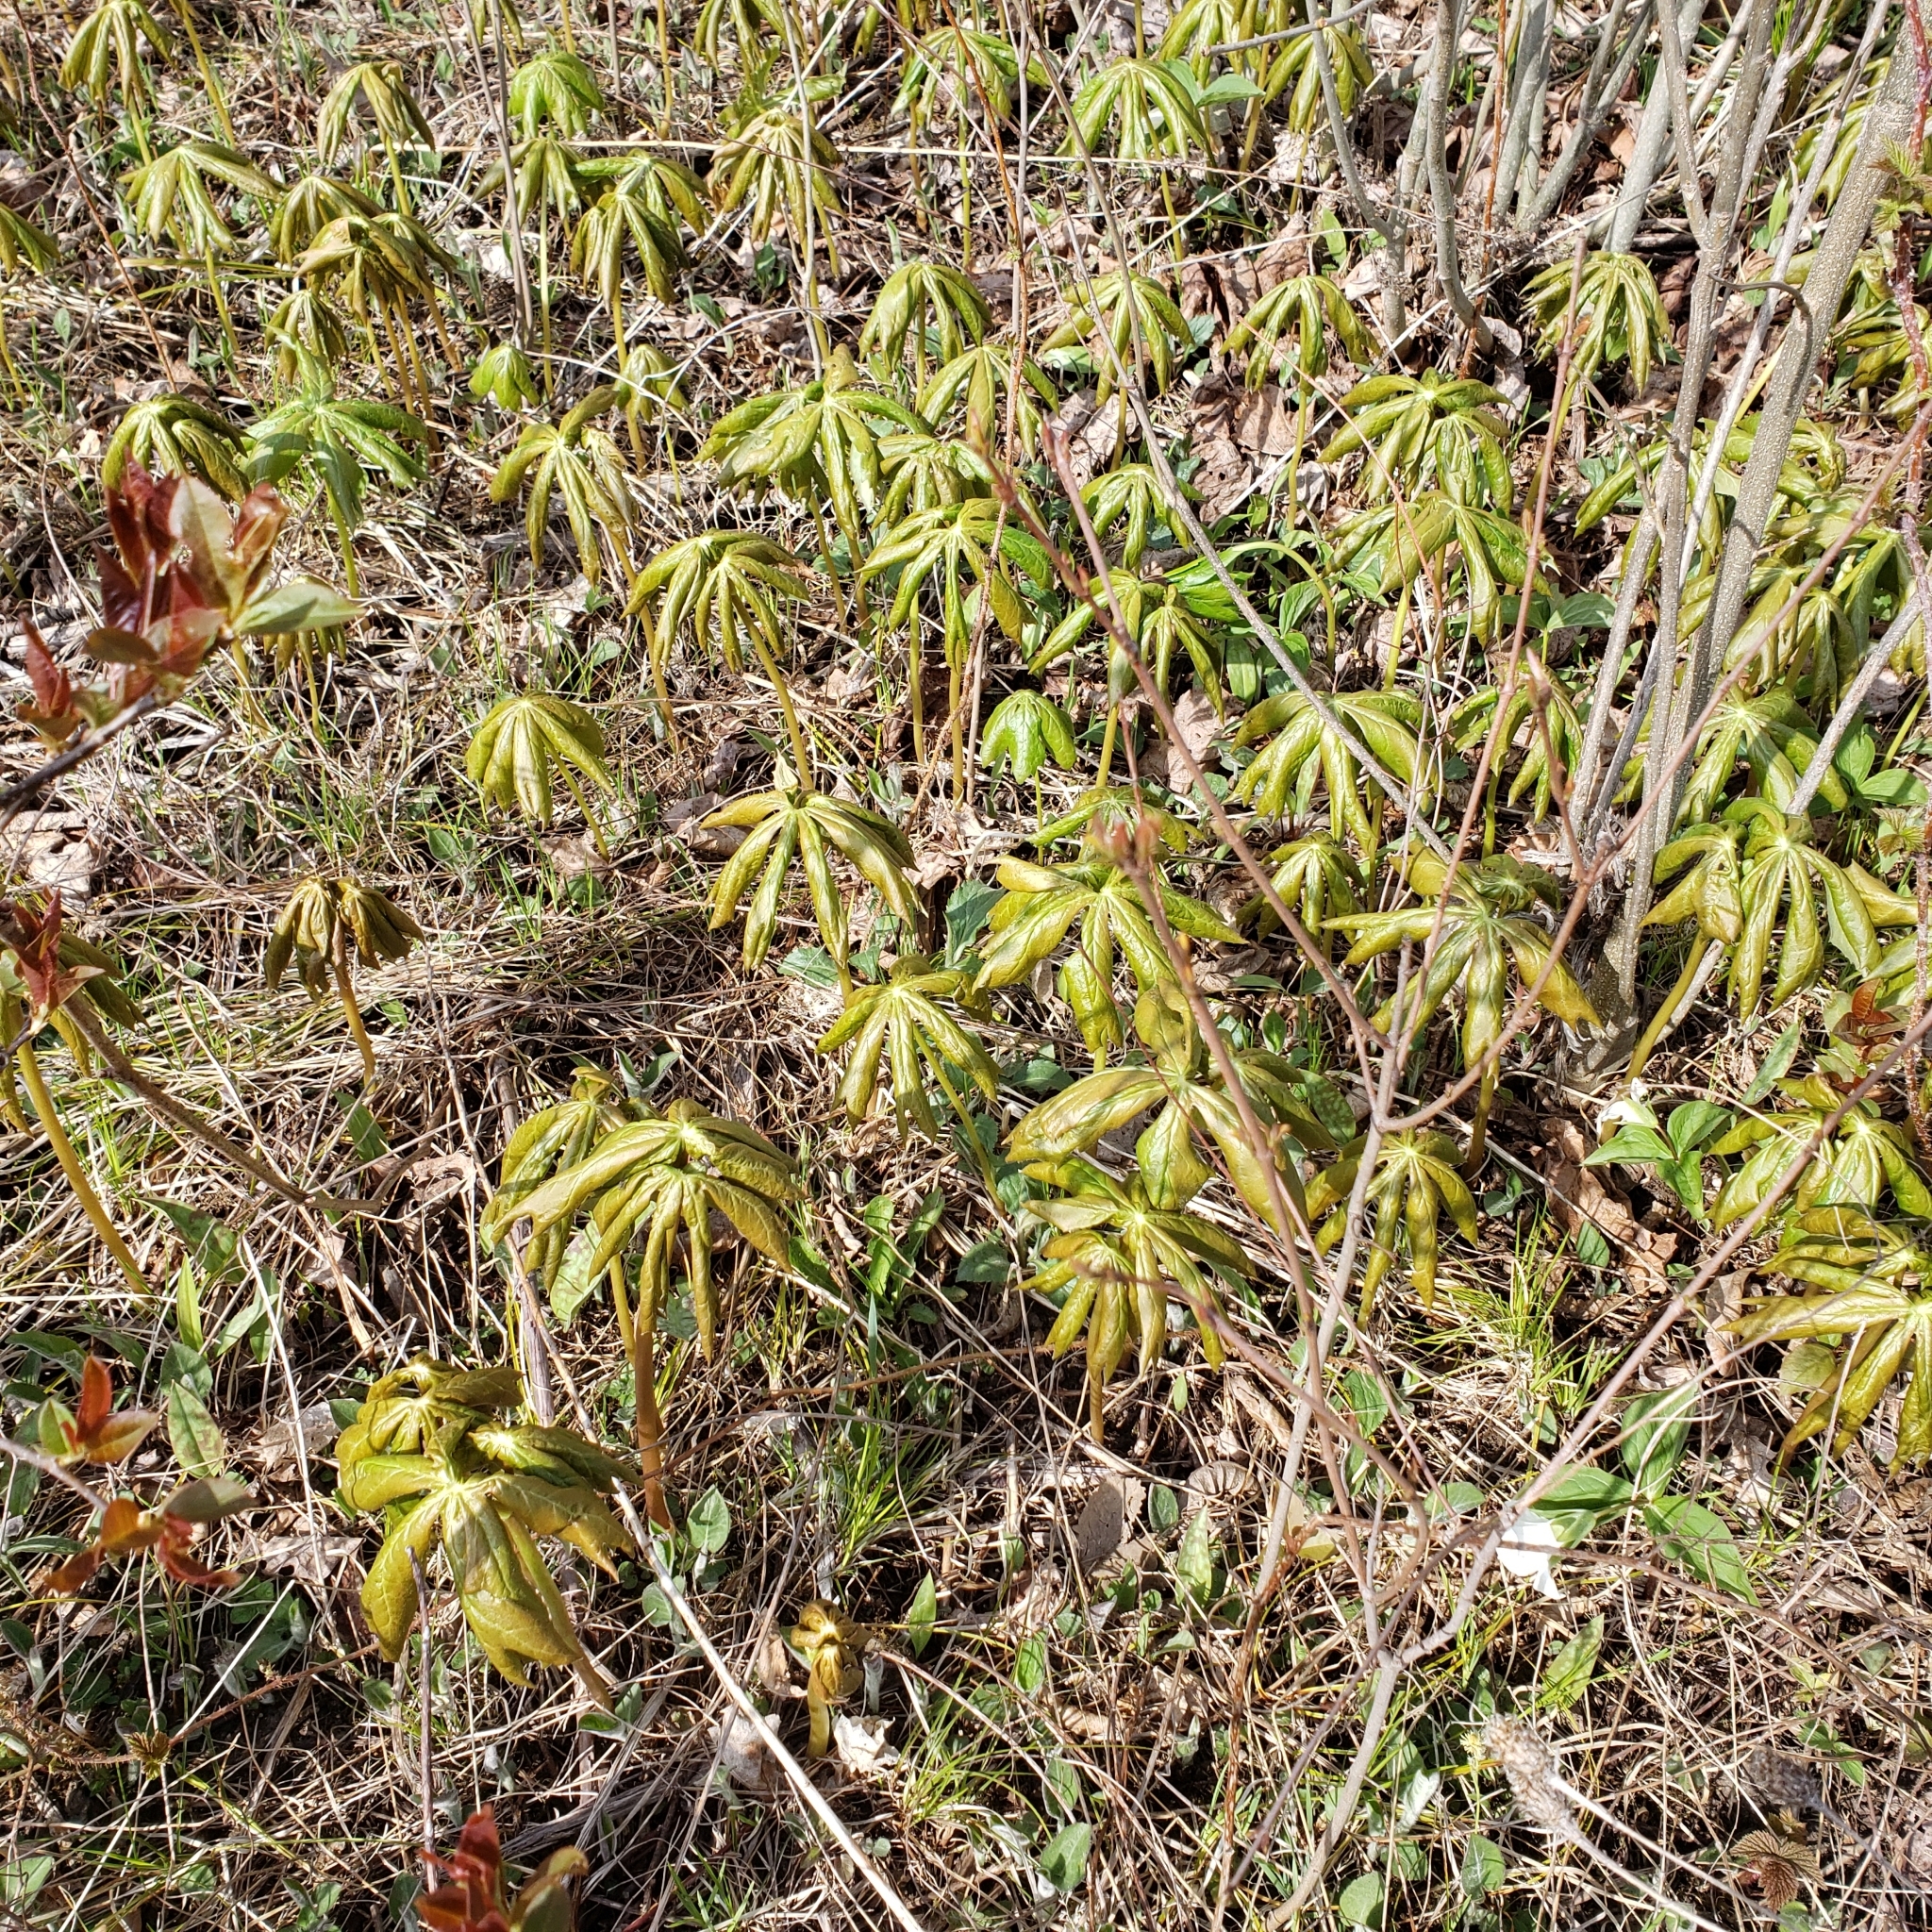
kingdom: Plantae
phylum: Tracheophyta
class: Magnoliopsida
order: Ranunculales
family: Berberidaceae
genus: Podophyllum
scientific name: Podophyllum peltatum
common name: Wild mandrake
